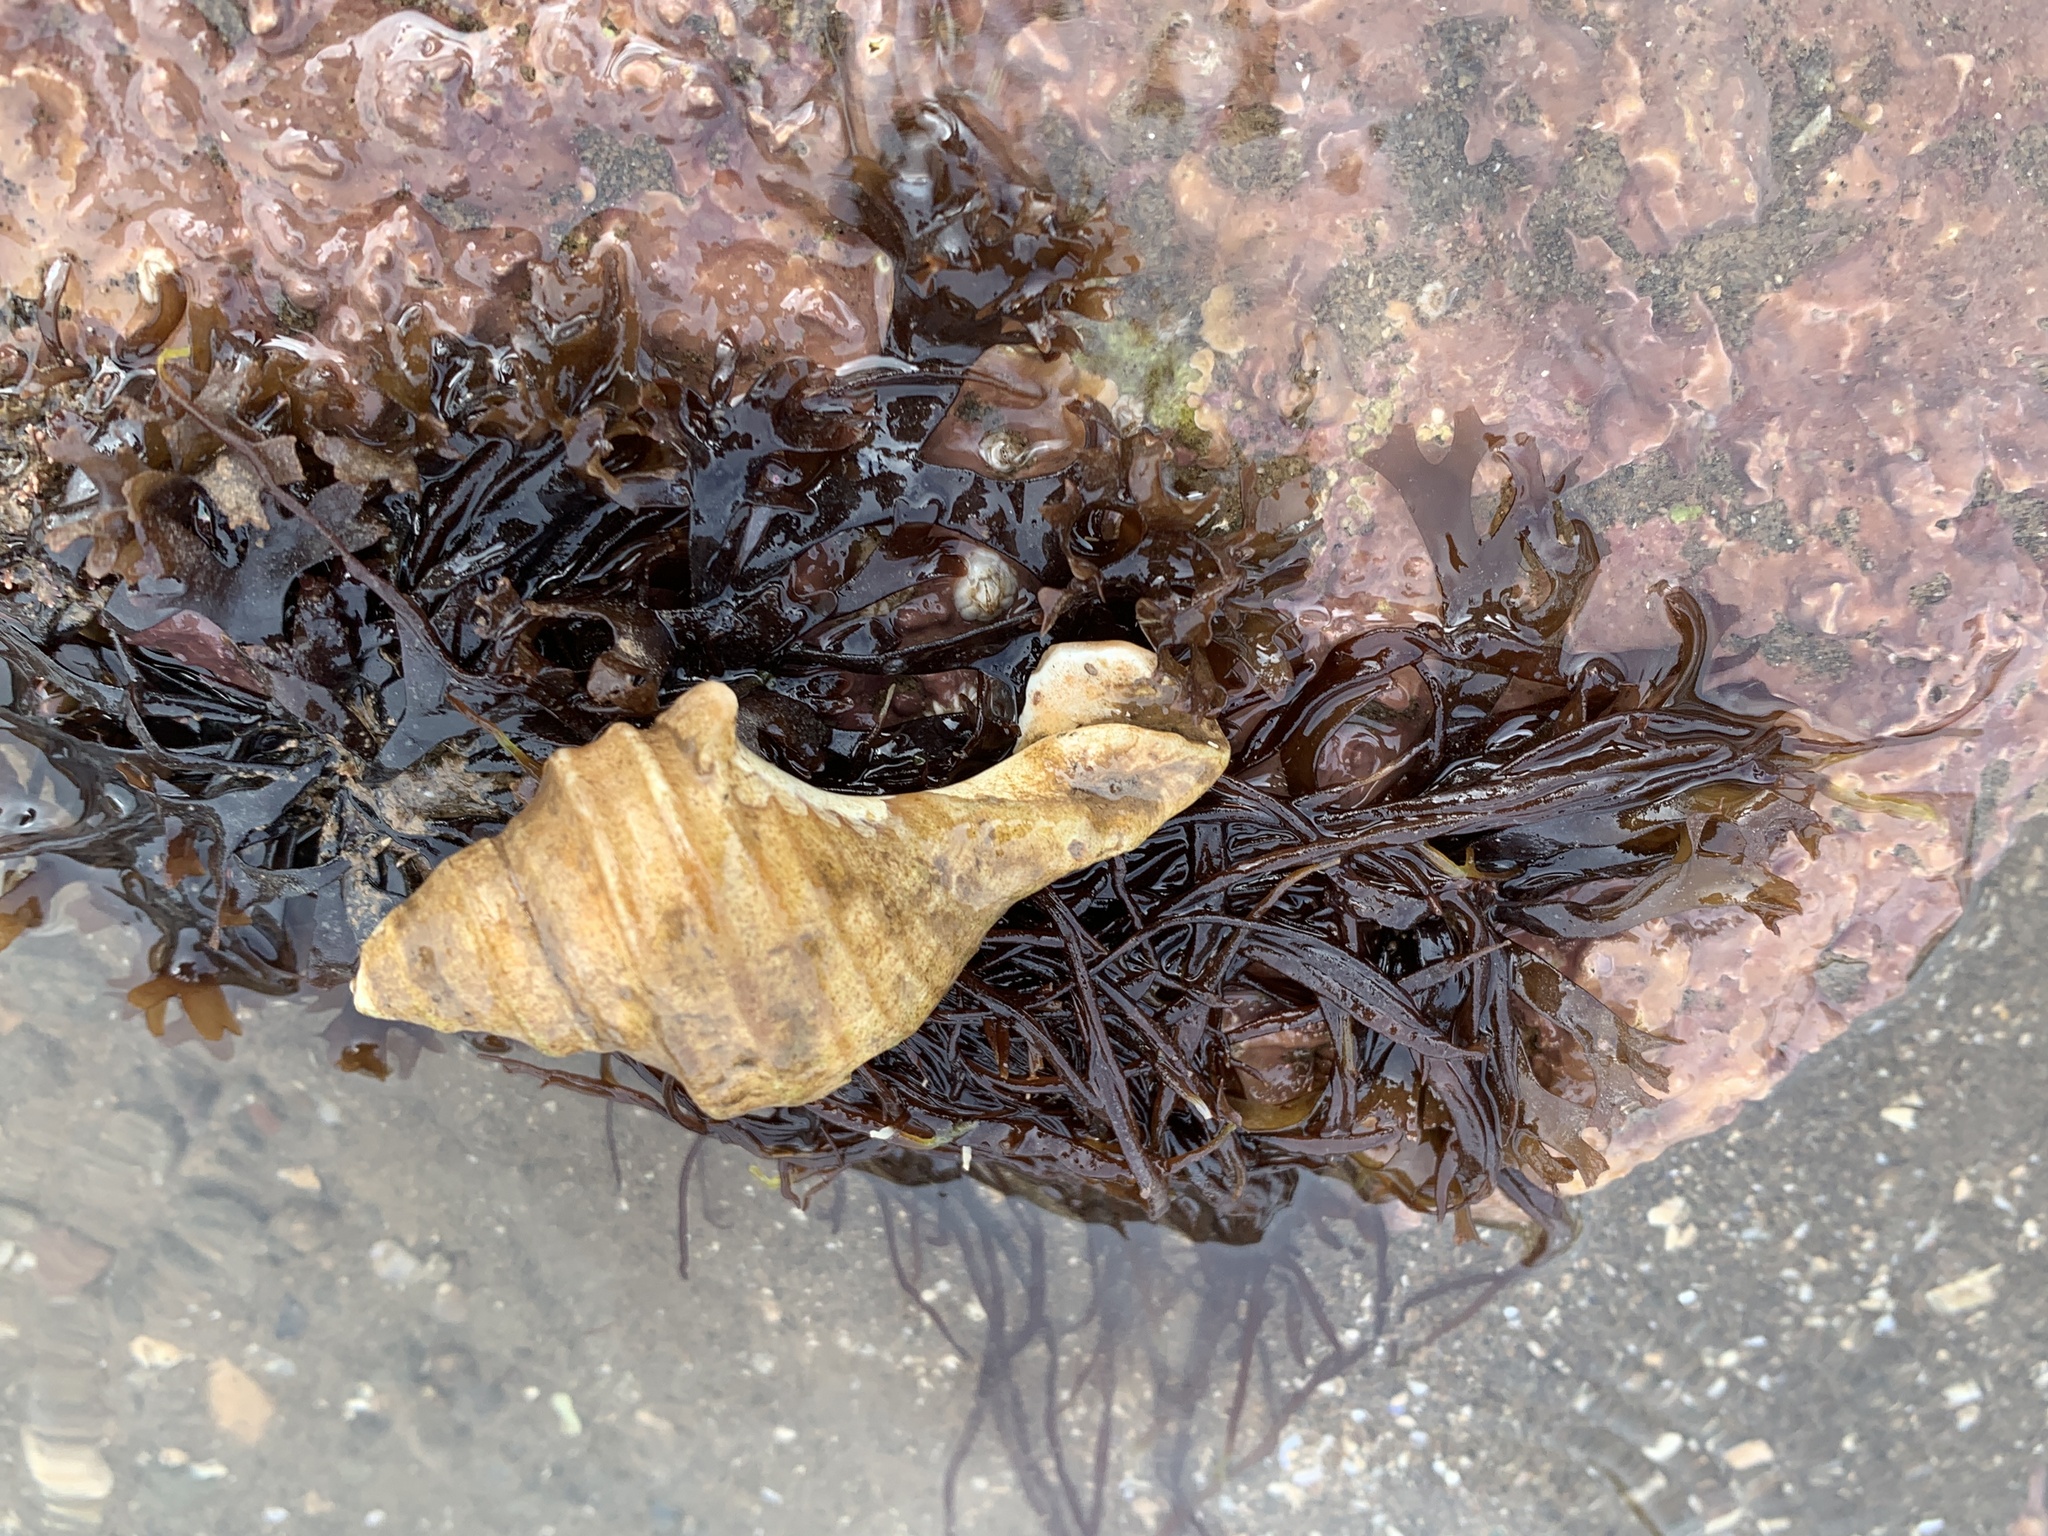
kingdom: Animalia
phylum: Mollusca
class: Gastropoda
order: Neogastropoda
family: Buccinidae
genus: Neptunea
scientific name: Neptunea decemcostata
